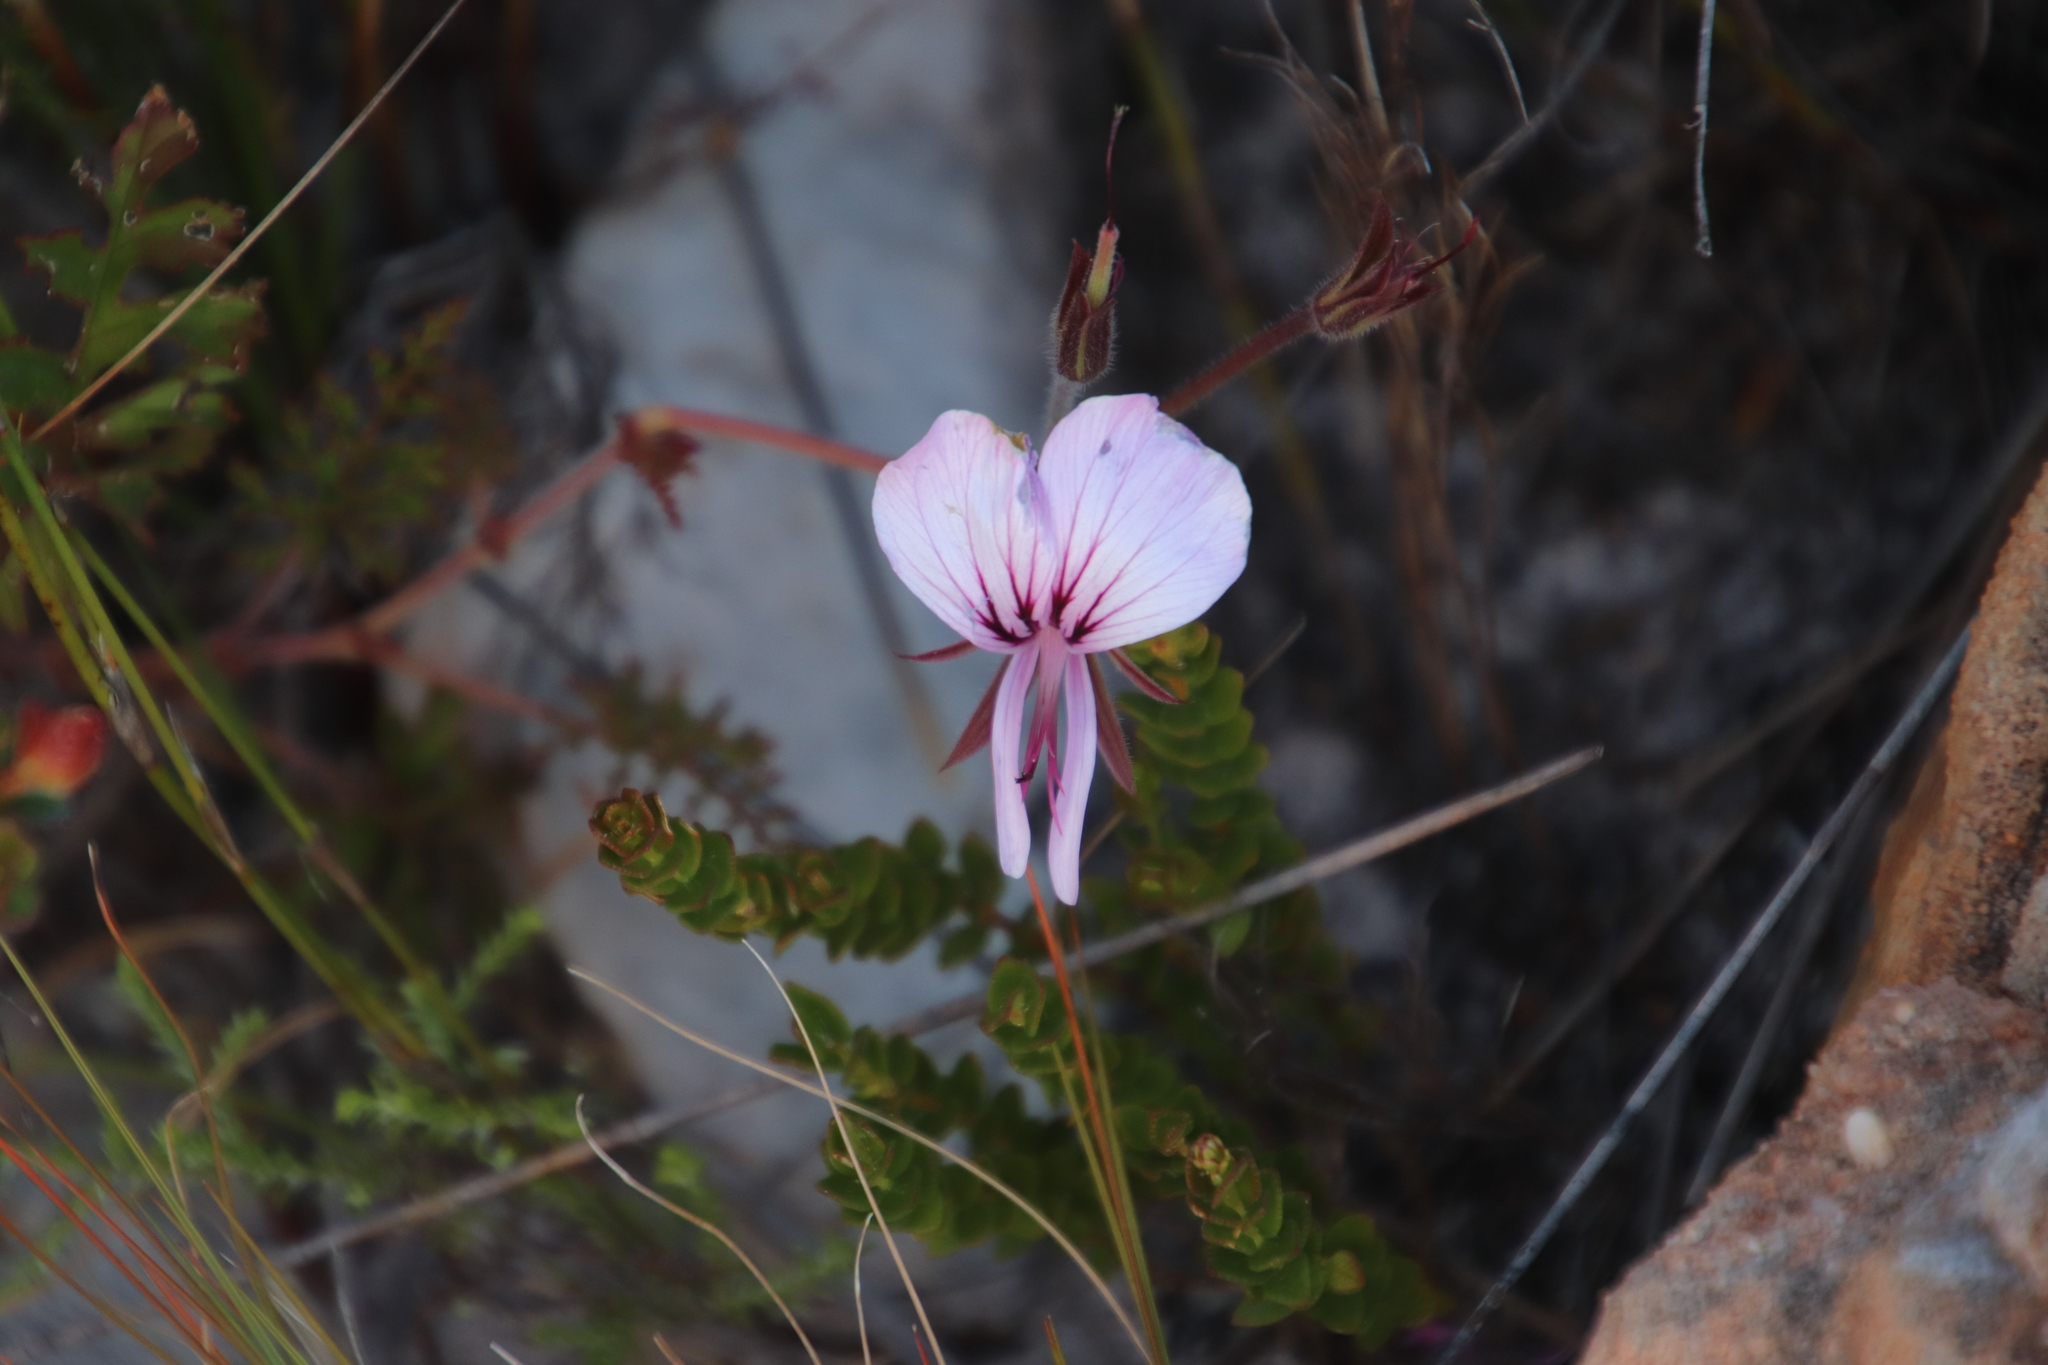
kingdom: Plantae
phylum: Tracheophyta
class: Magnoliopsida
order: Geraniales
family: Geraniaceae
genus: Pelargonium
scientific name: Pelargonium longicaule
